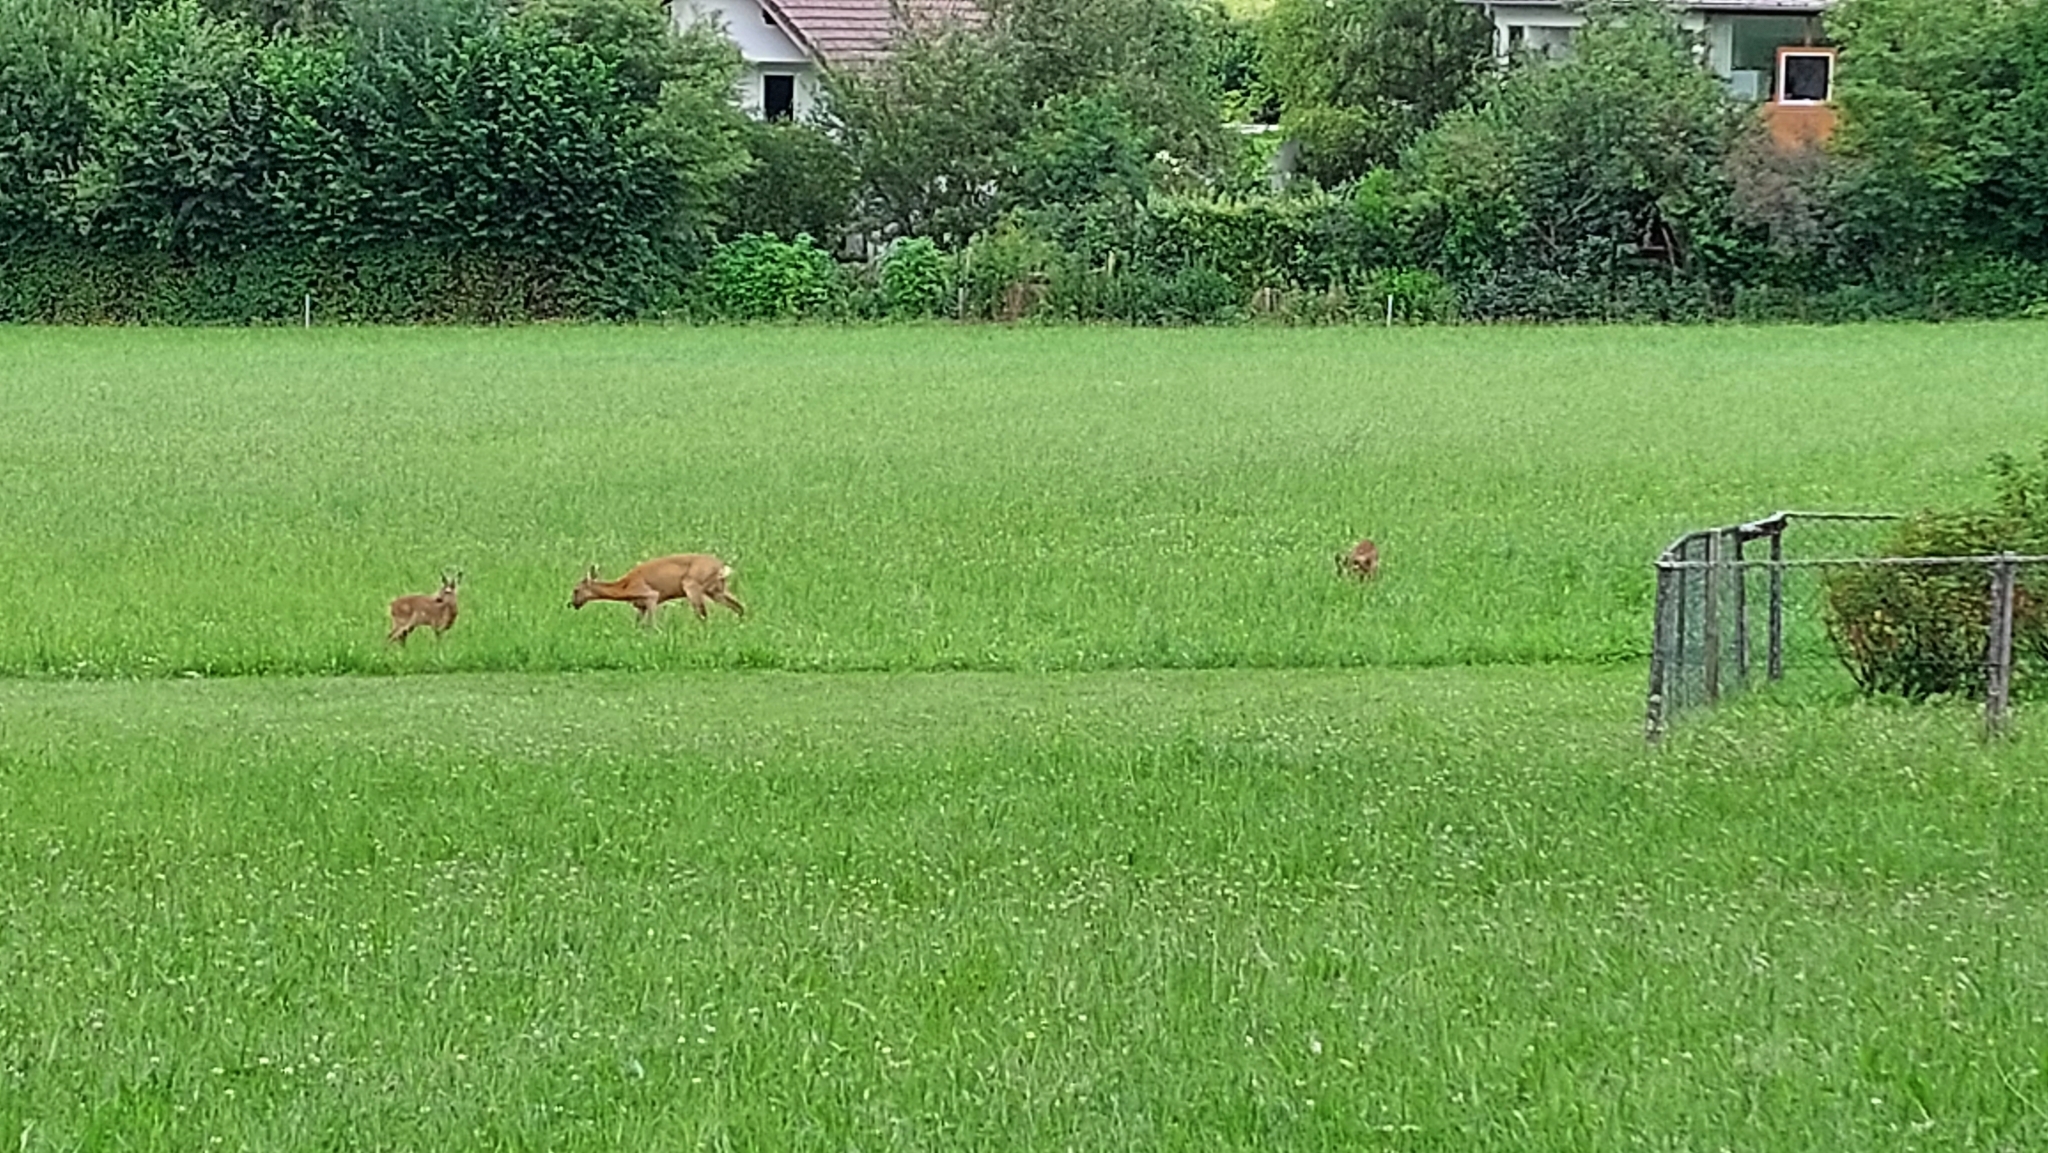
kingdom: Animalia
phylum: Chordata
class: Mammalia
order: Artiodactyla
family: Cervidae
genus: Capreolus
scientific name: Capreolus capreolus
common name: Western roe deer
